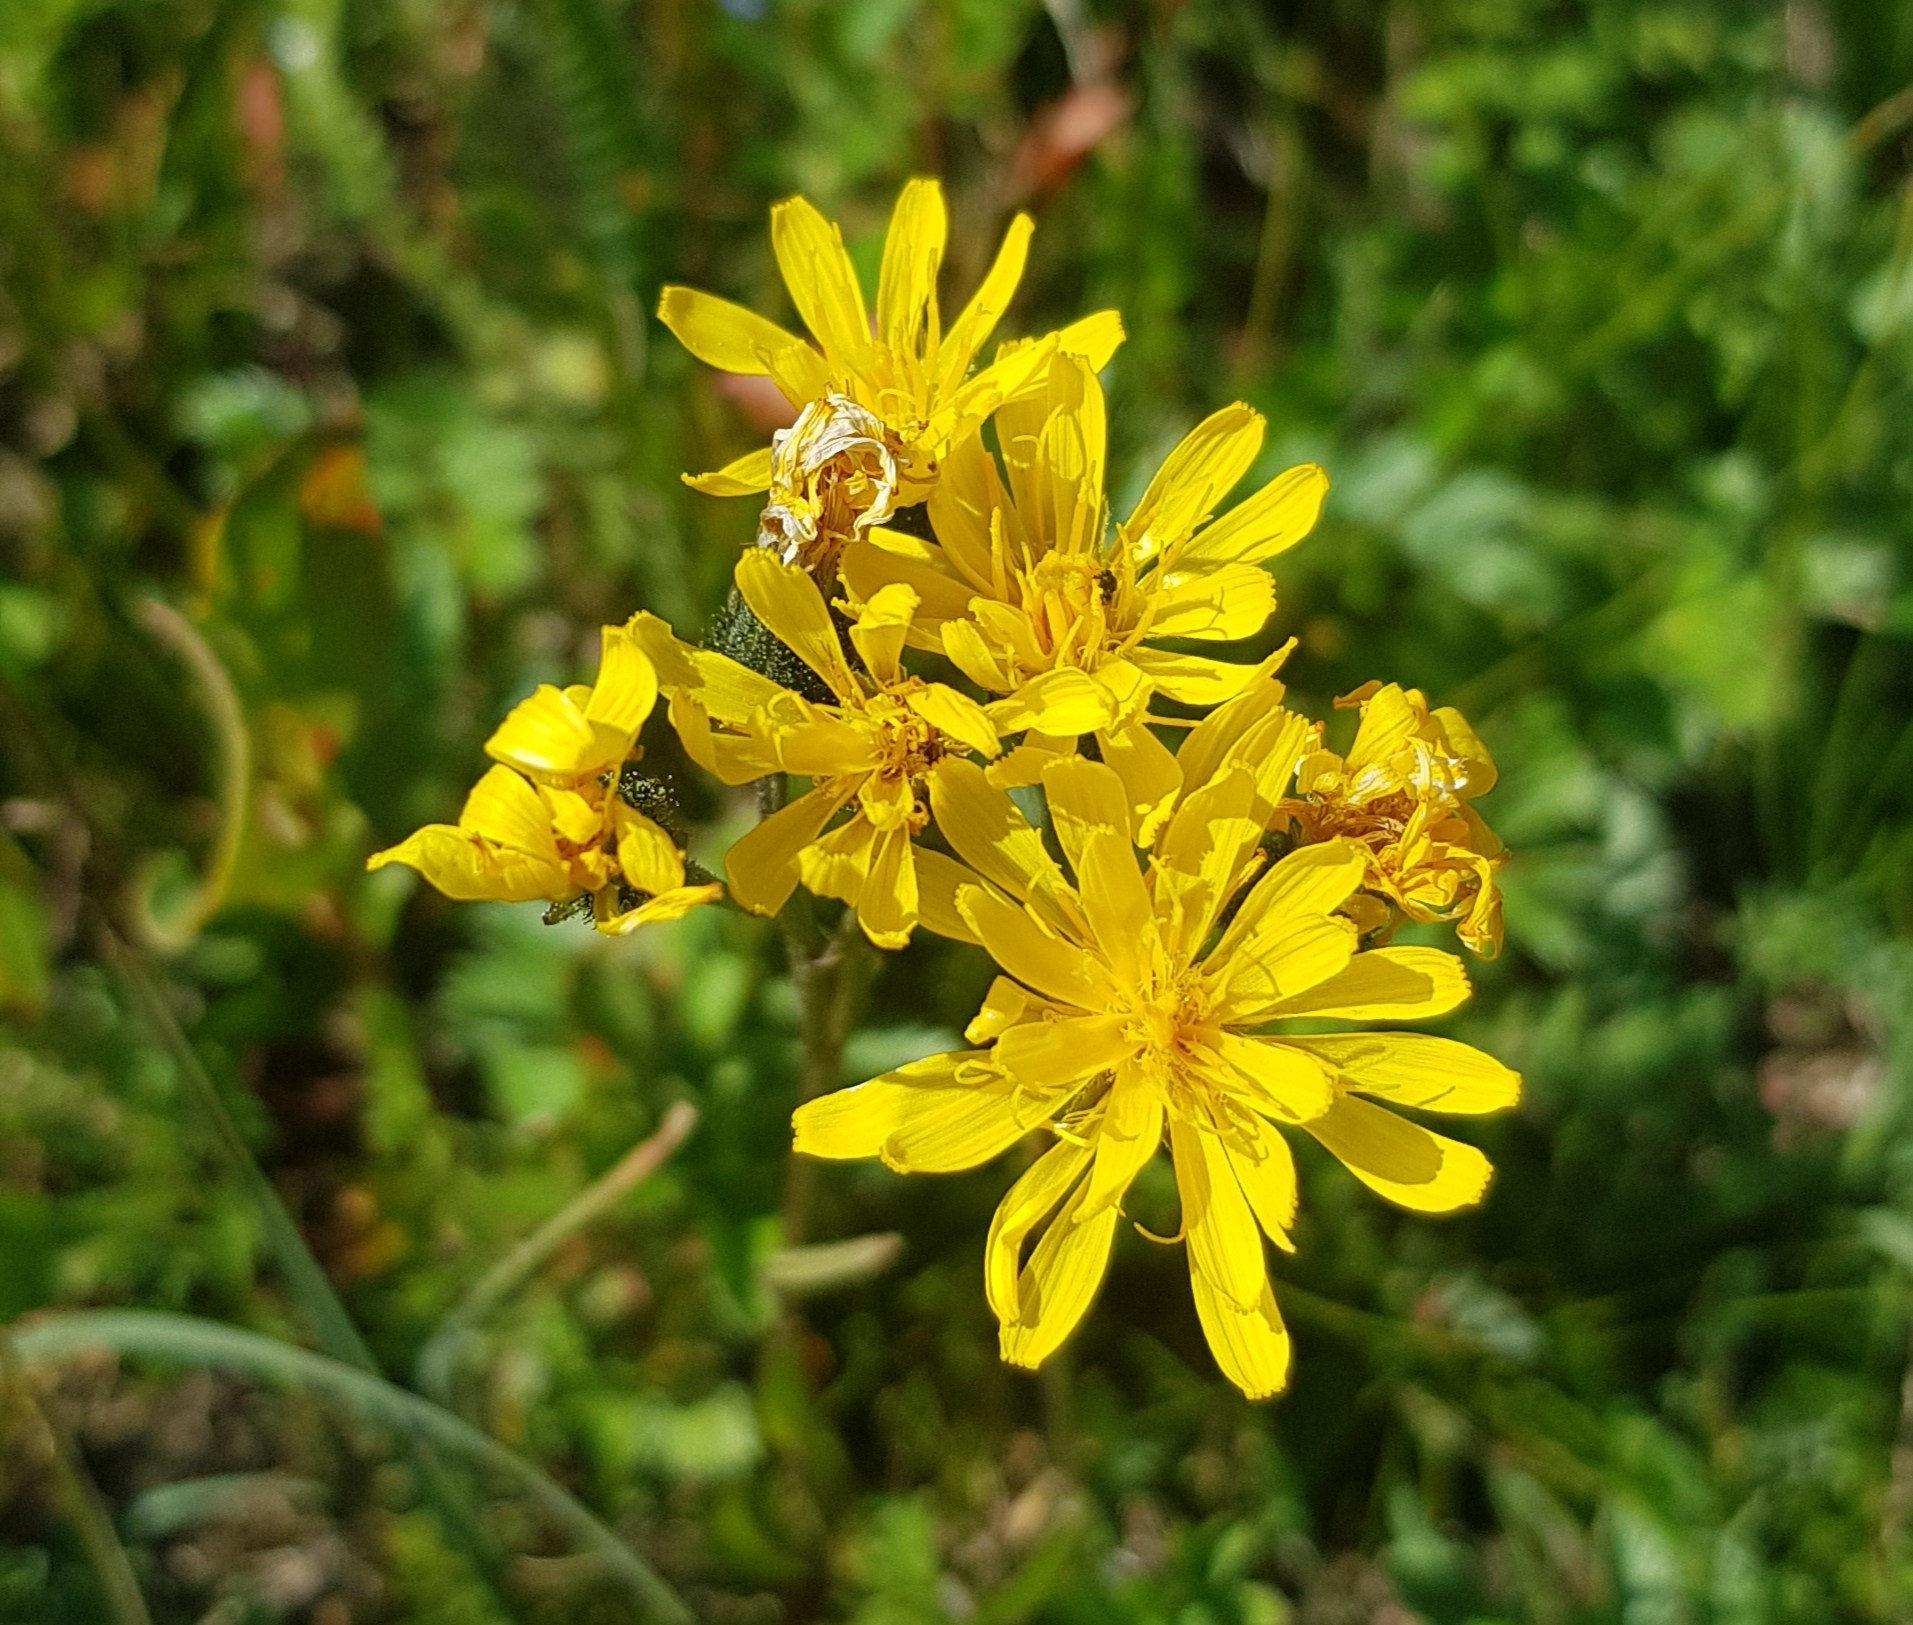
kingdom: Plantae
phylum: Tracheophyta
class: Magnoliopsida
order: Asterales
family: Asteraceae
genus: Crepis
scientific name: Crepis bungei
